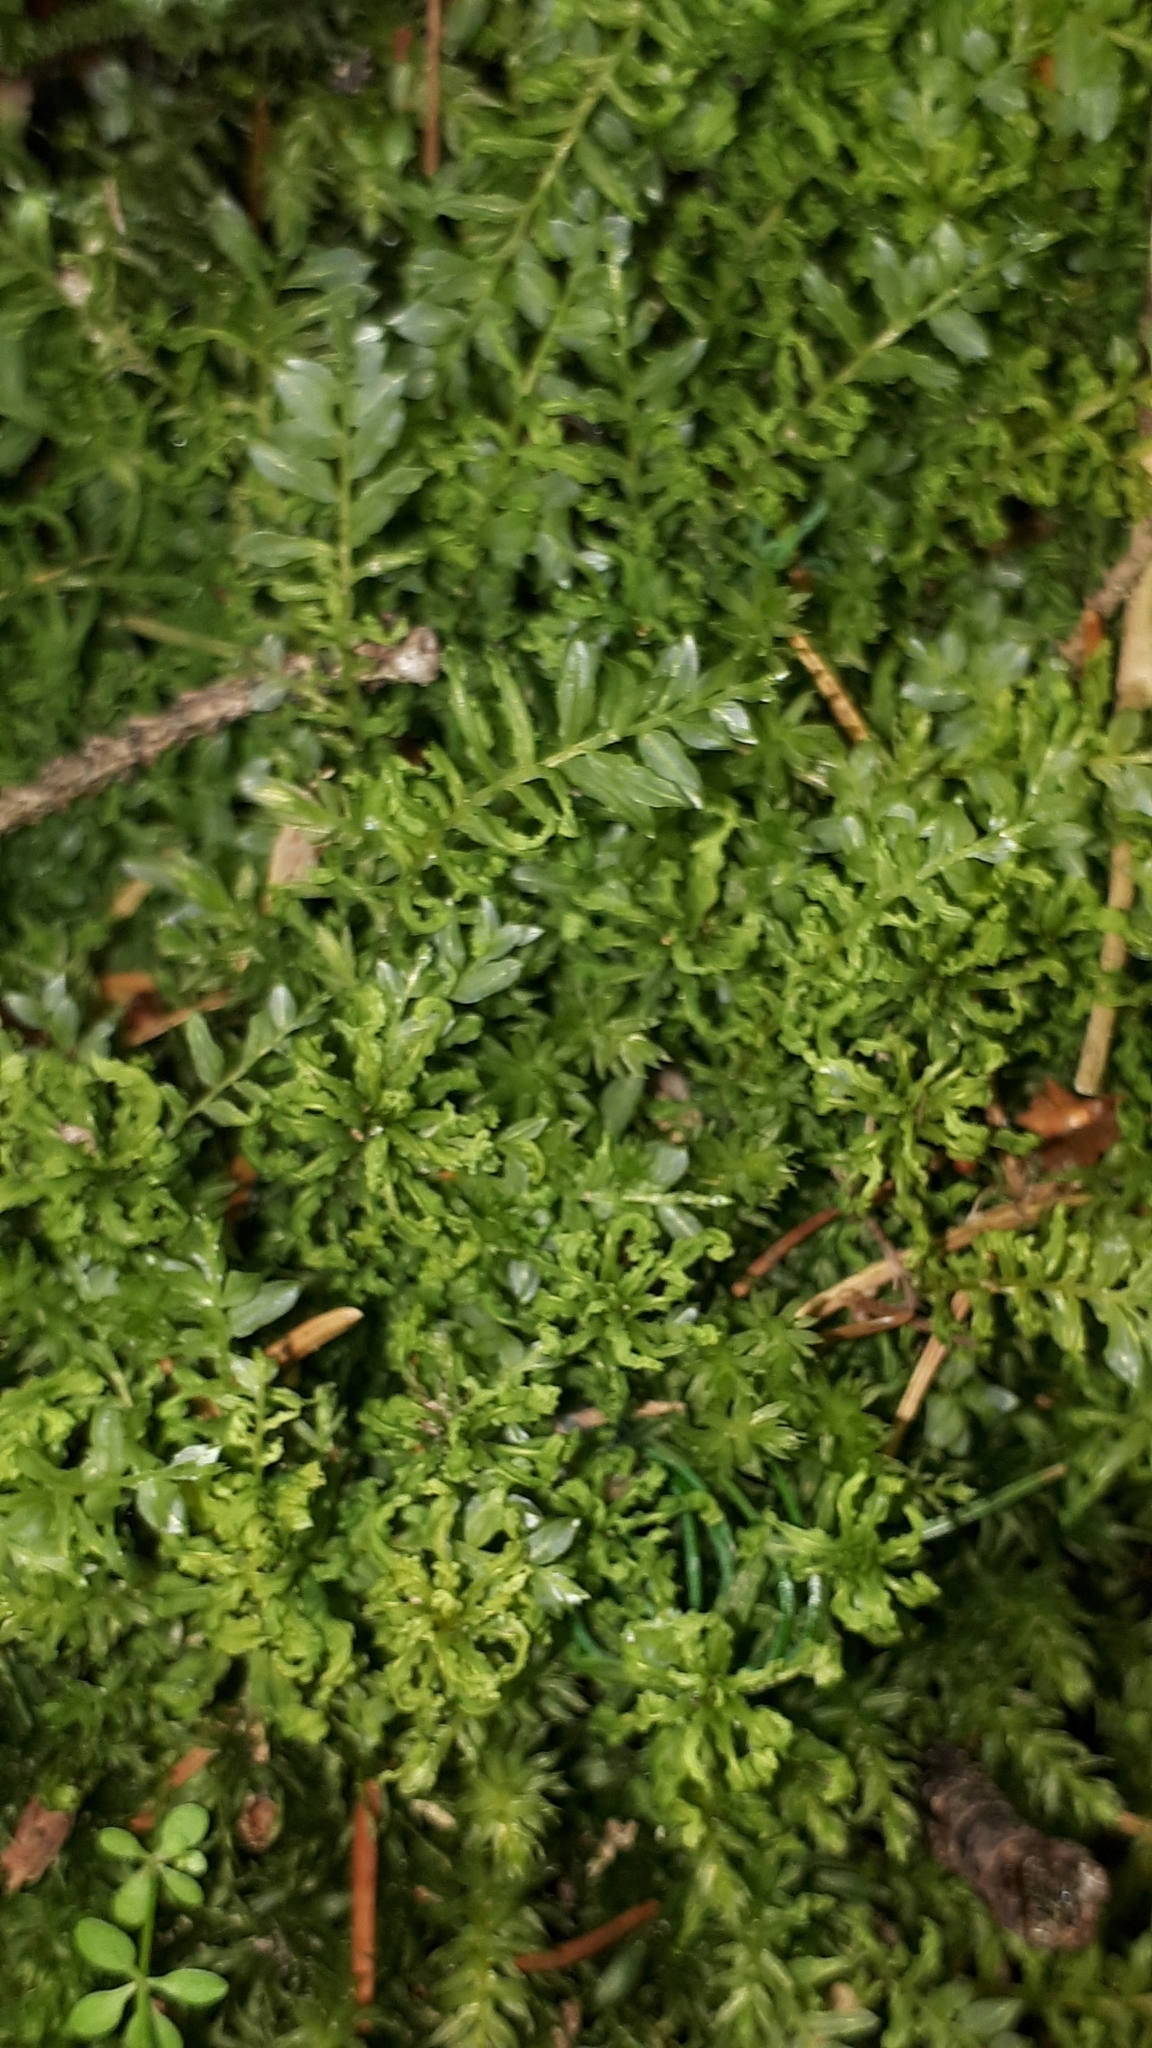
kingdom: Plantae
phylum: Bryophyta
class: Bryopsida
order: Bryales
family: Mniaceae
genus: Plagiomnium
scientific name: Plagiomnium undulatum
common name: Hart's-tongue thyme-moss
